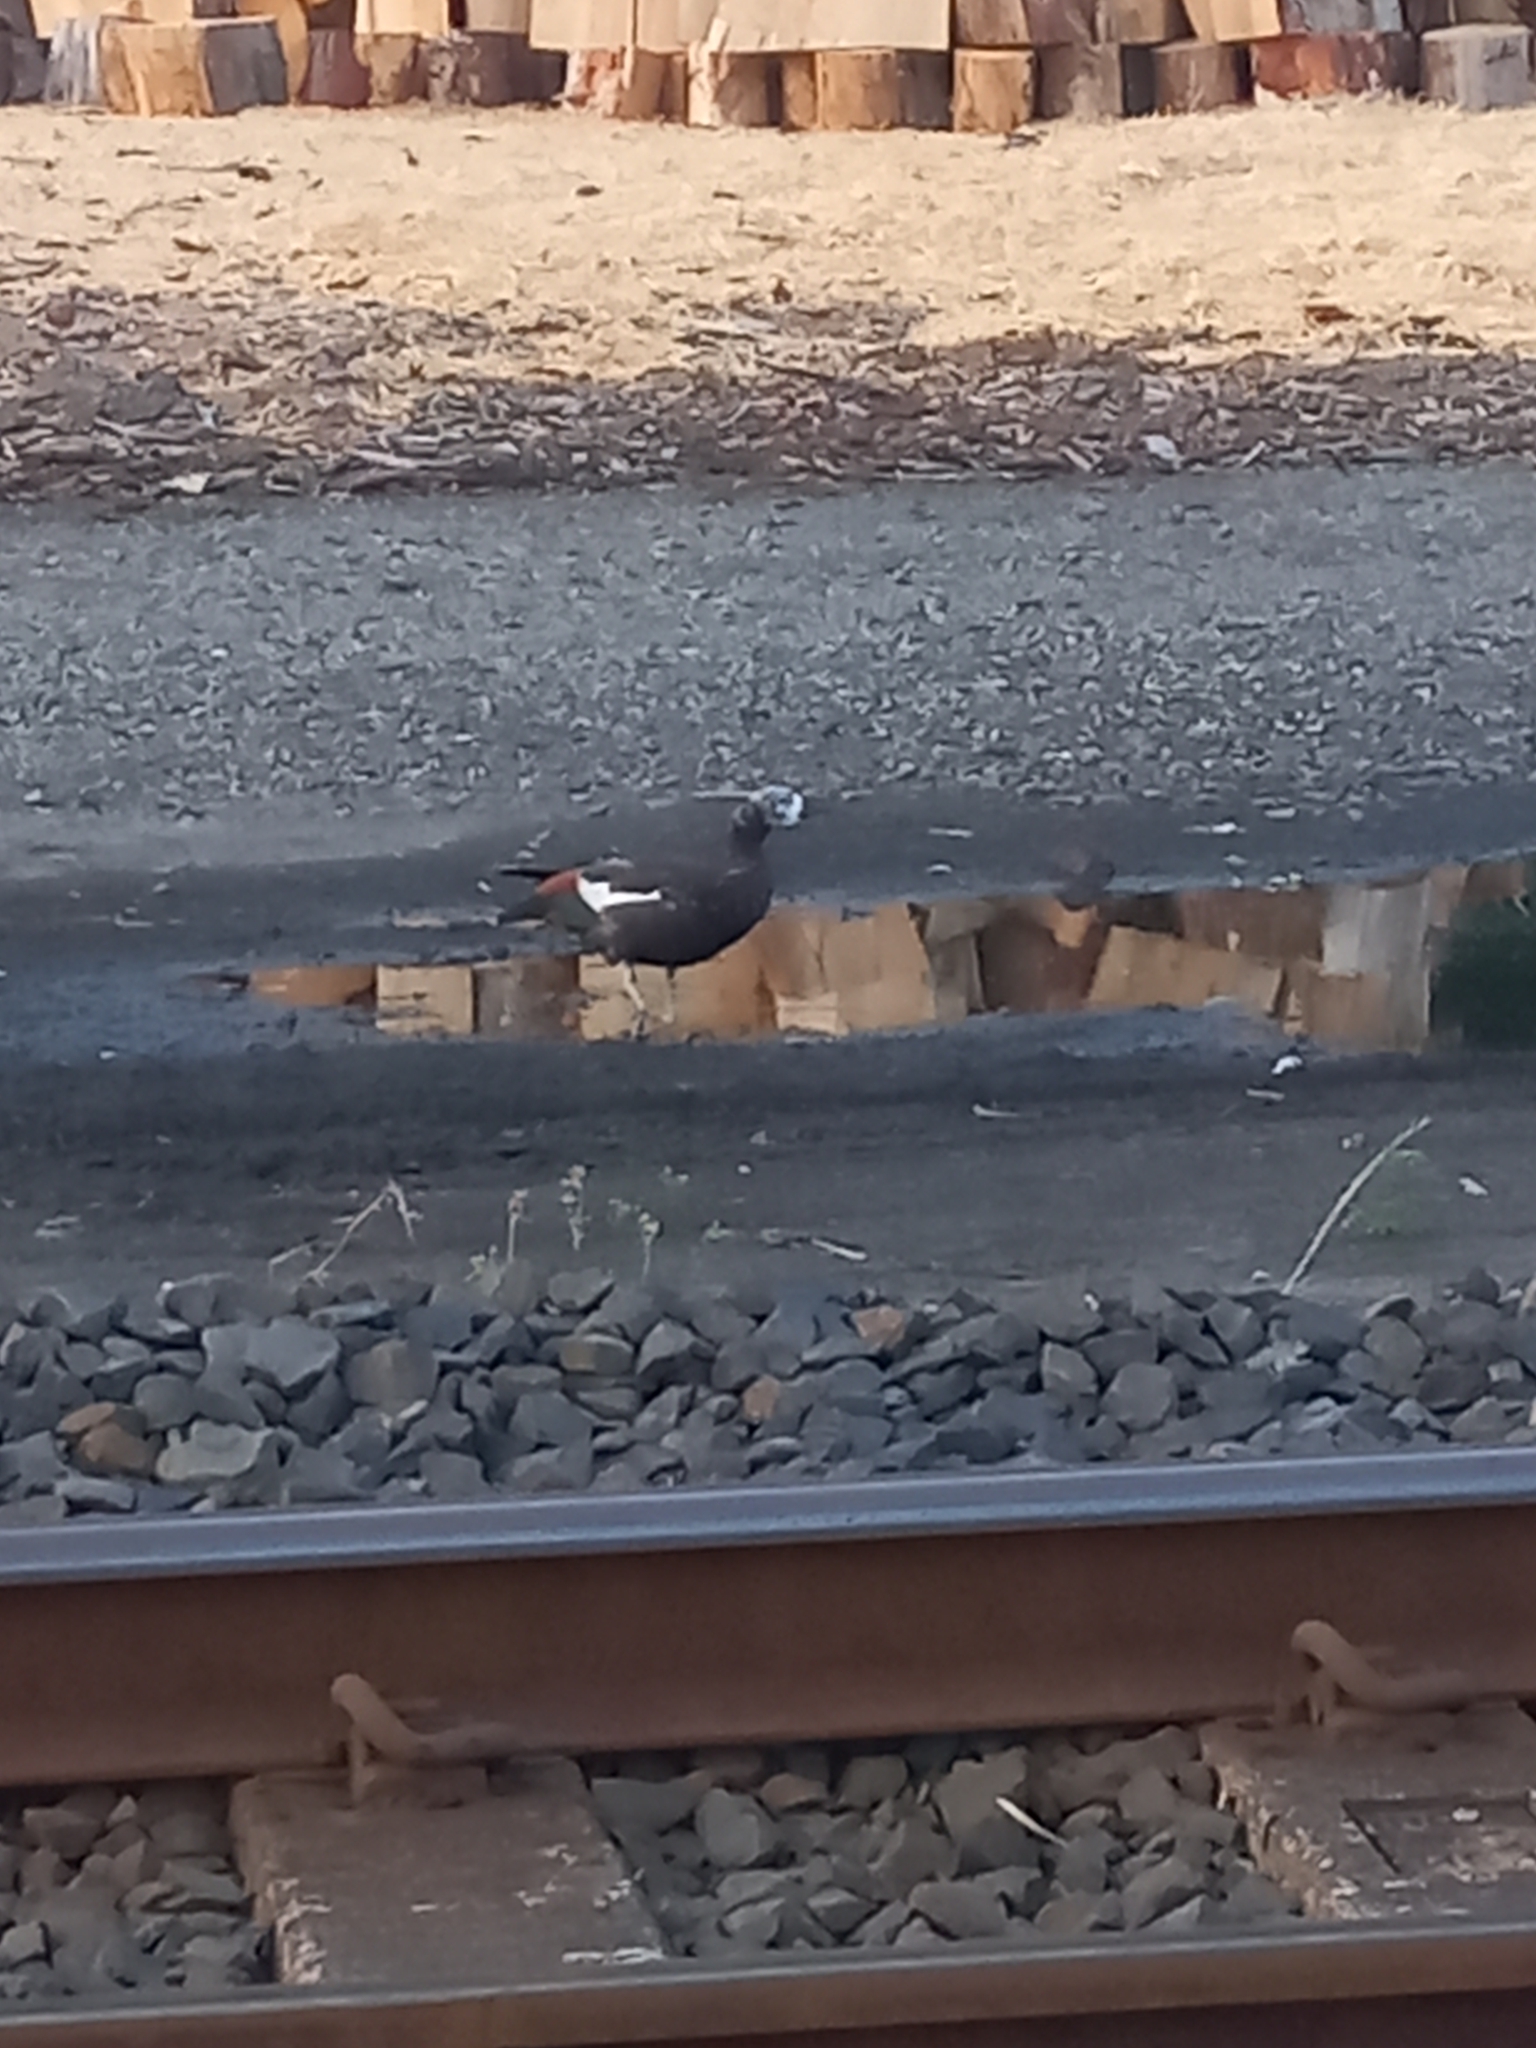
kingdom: Animalia
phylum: Chordata
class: Aves
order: Anseriformes
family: Anatidae
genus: Tadorna
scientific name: Tadorna variegata
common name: Paradise shelduck
